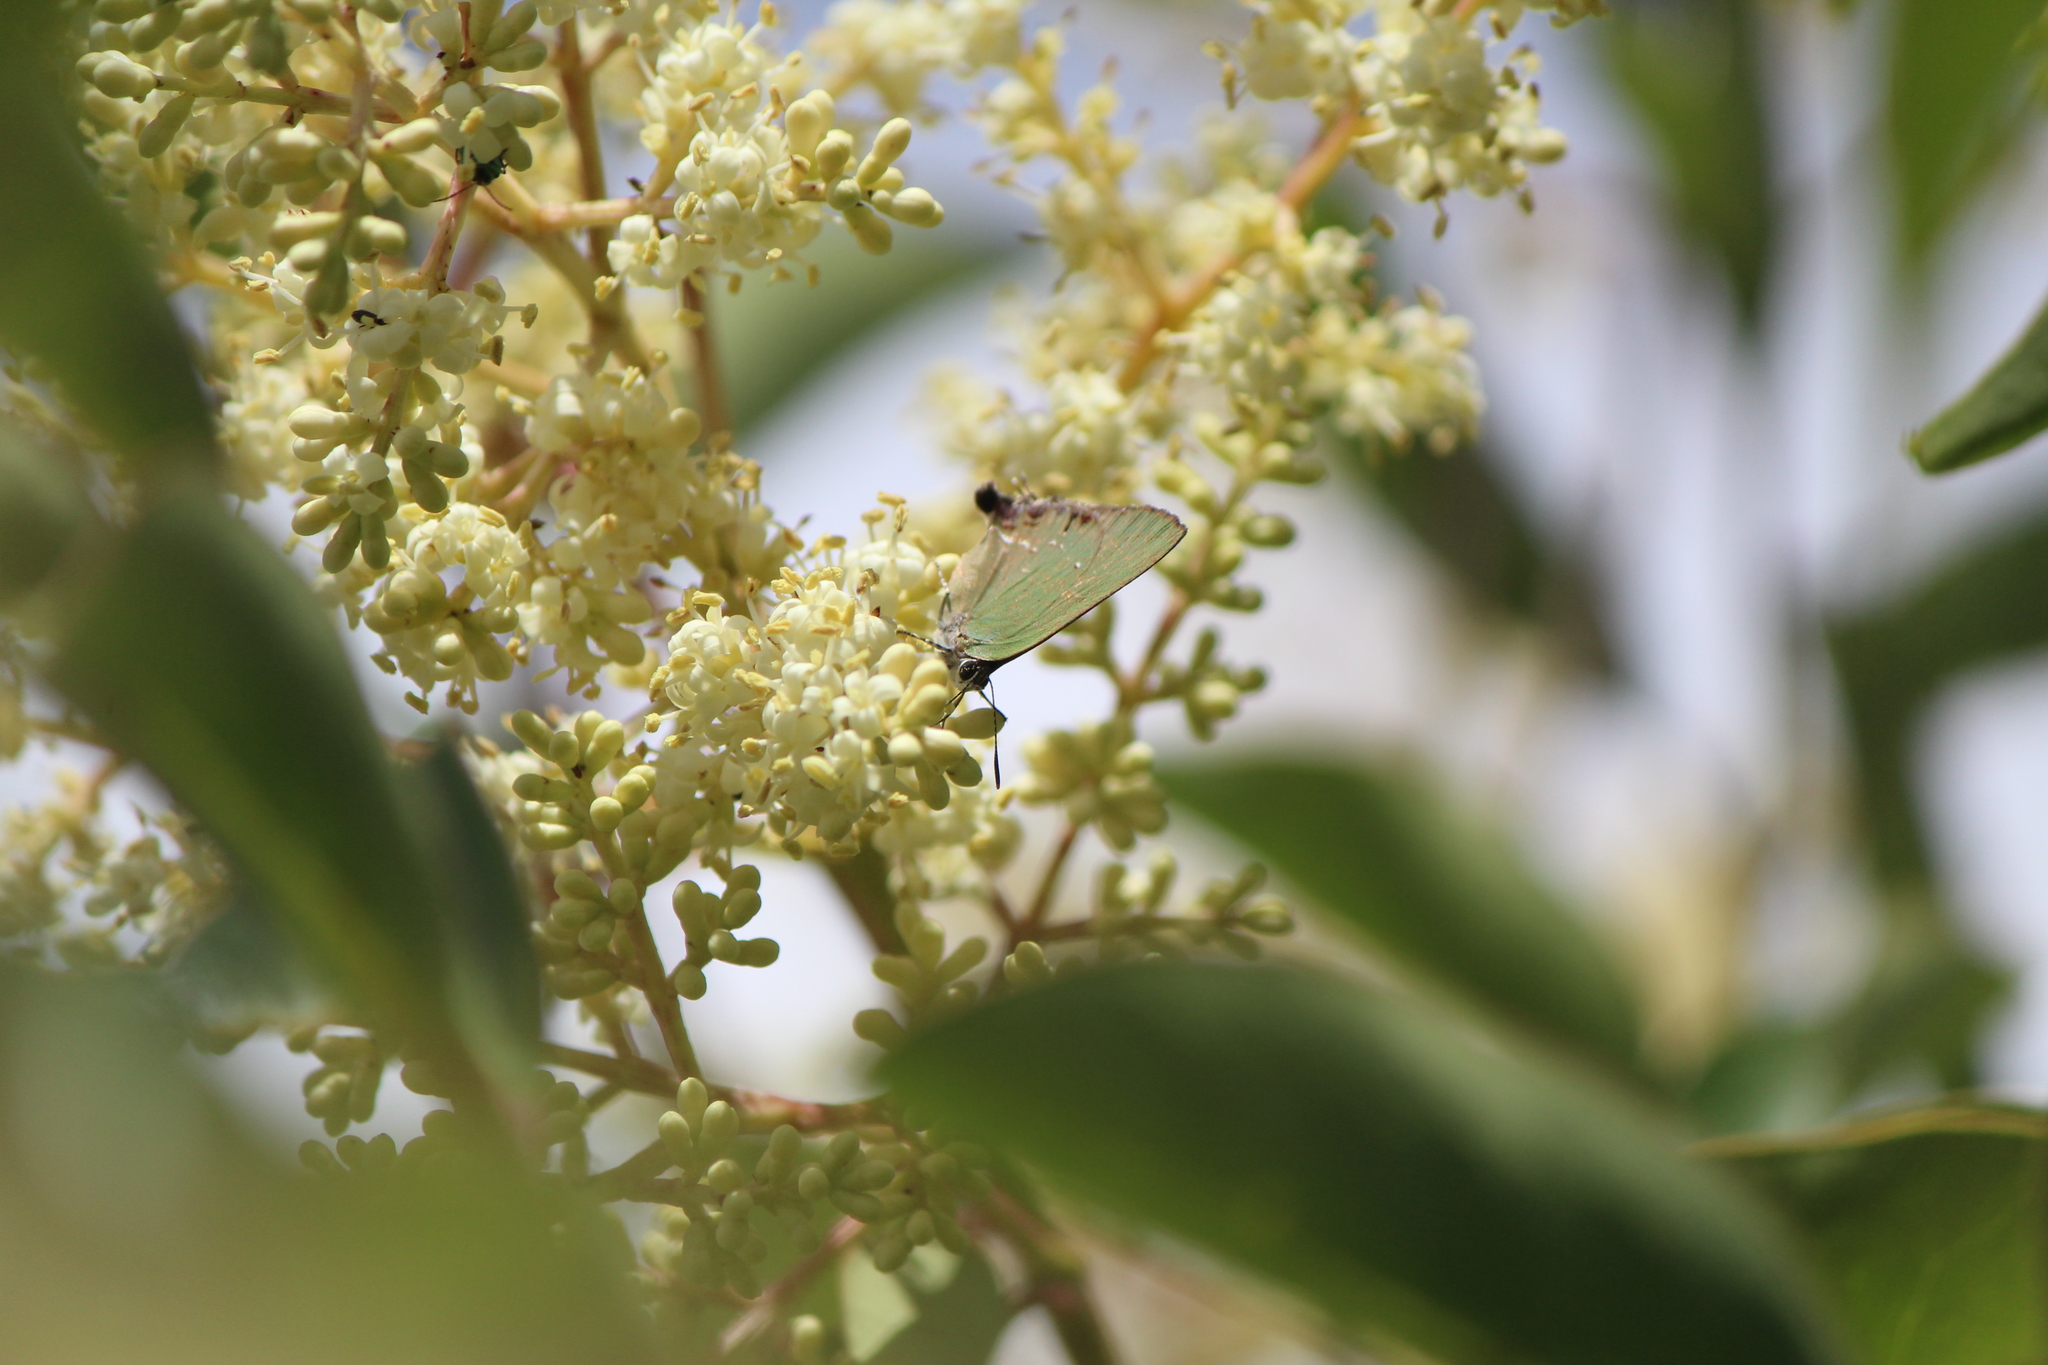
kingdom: Animalia
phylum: Arthropoda
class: Insecta
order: Lepidoptera
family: Lycaenidae
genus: Cyanophrys
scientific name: Cyanophrys longula
